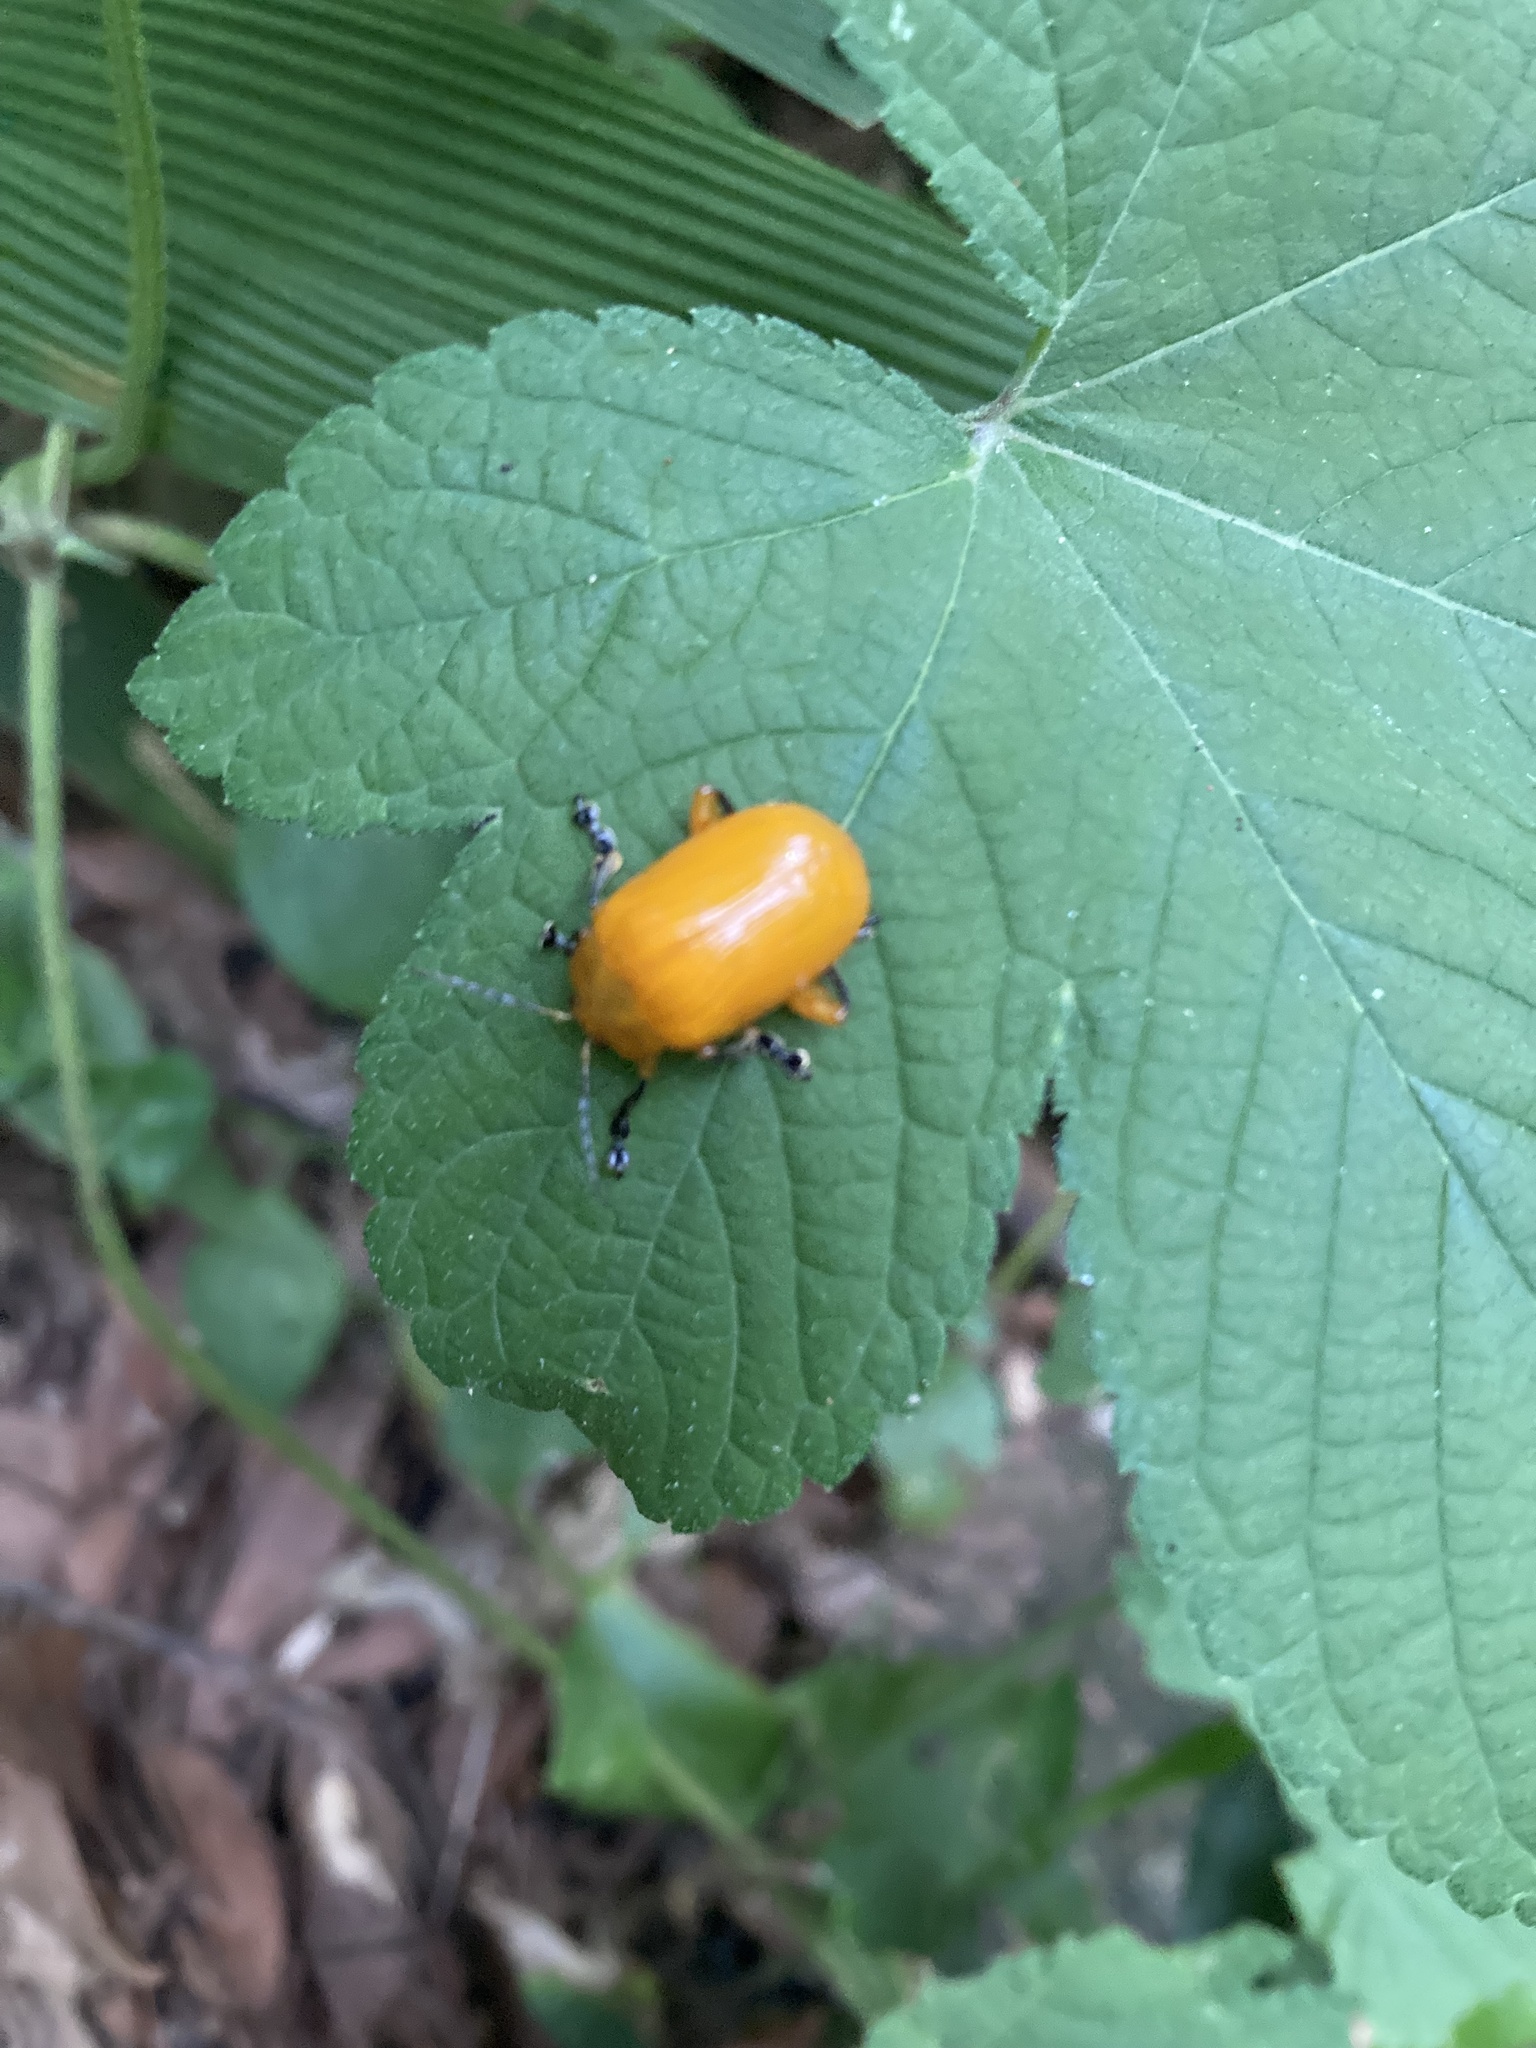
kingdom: Animalia
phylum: Arthropoda
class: Insecta
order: Coleoptera
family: Chrysomelidae
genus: Podontia
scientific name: Podontia lutea
